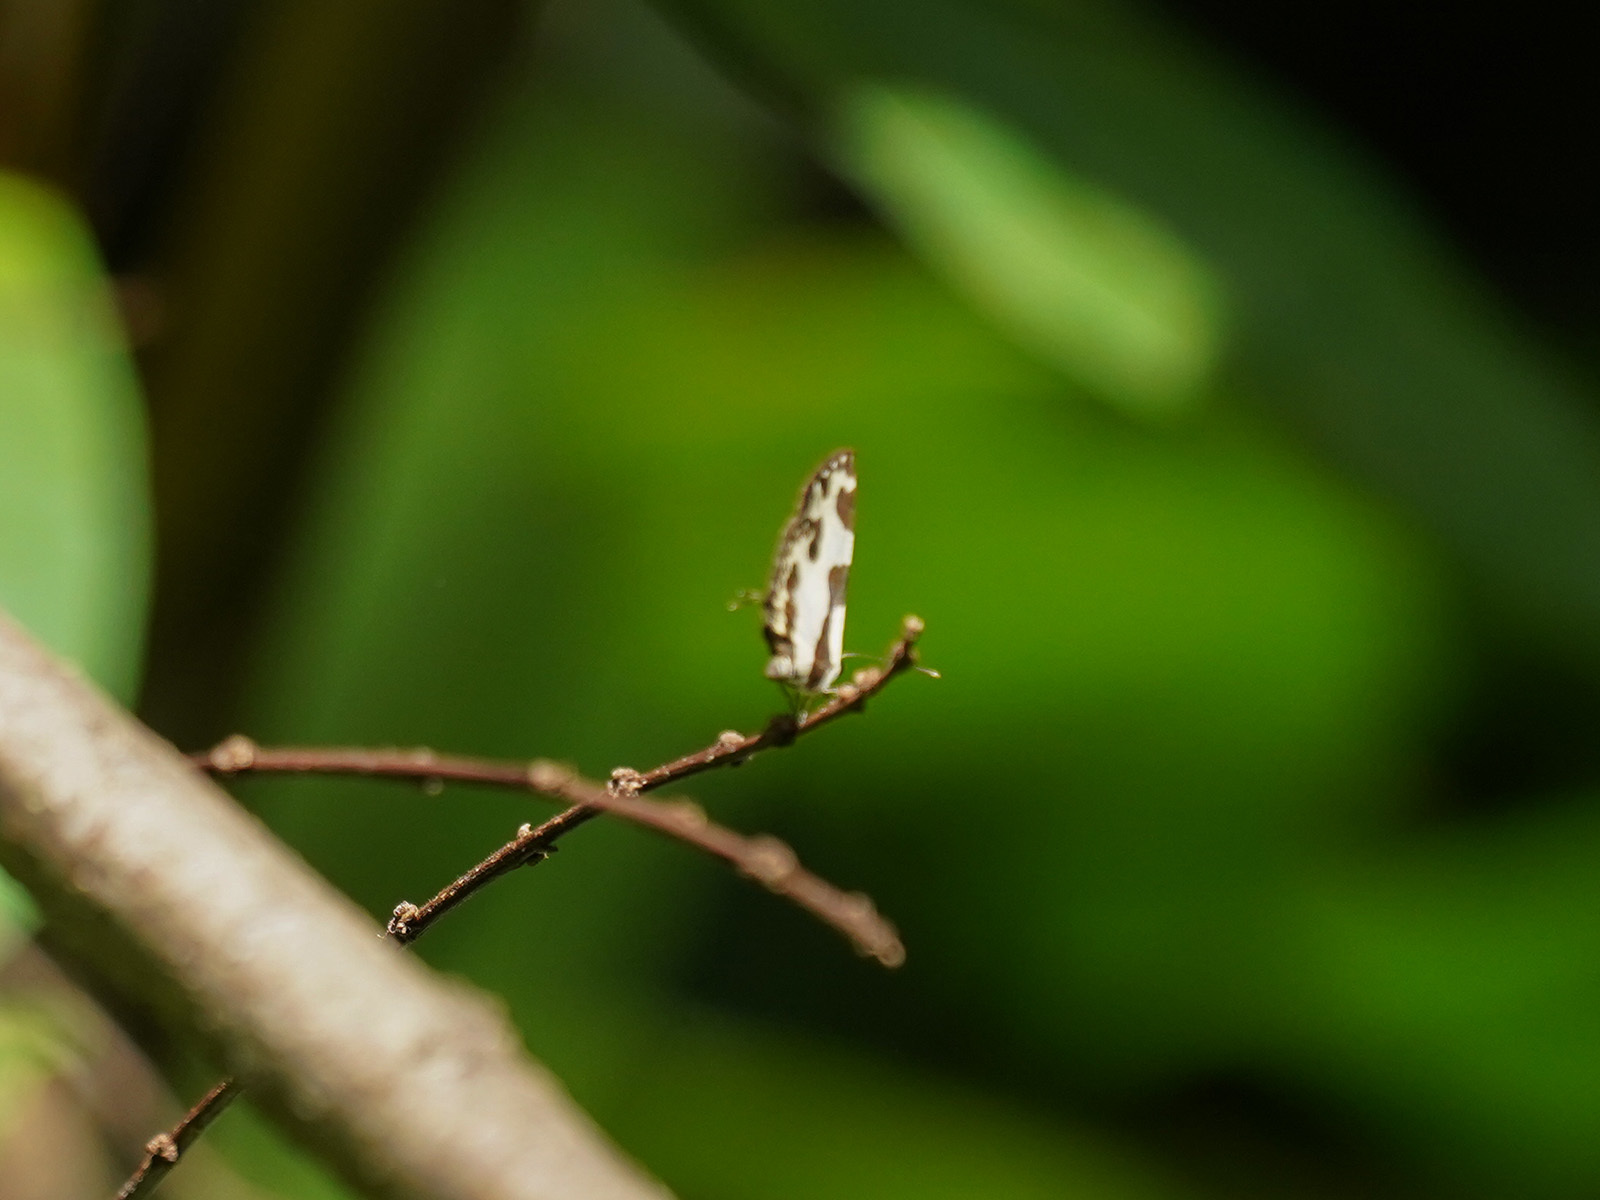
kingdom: Animalia
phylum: Arthropoda
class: Insecta
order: Lepidoptera
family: Lycaenidae
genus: Caleta
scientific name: Caleta elna
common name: Elbowed pierrot
